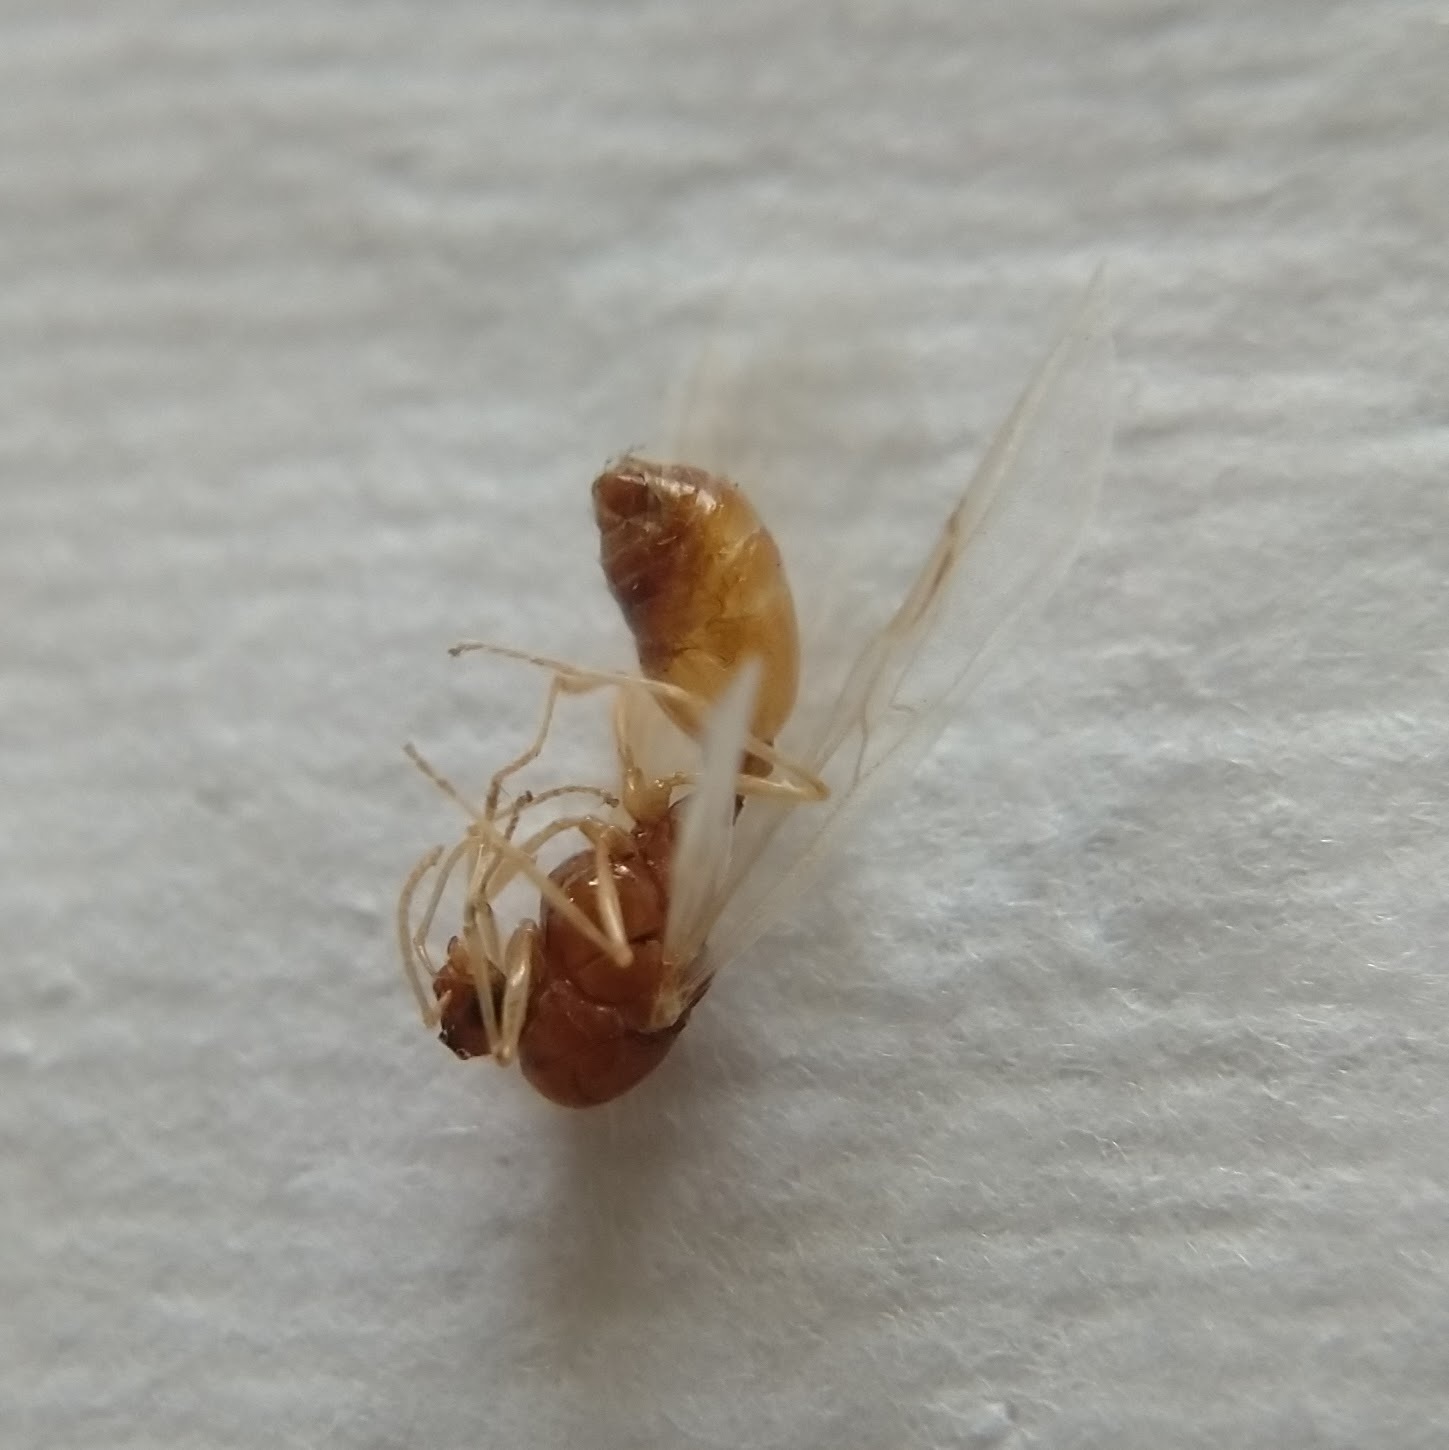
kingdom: Animalia
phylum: Arthropoda
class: Insecta
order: Hymenoptera
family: Formicidae
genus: Tetramorium
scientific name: Tetramorium immigrans
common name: Pavement ant
